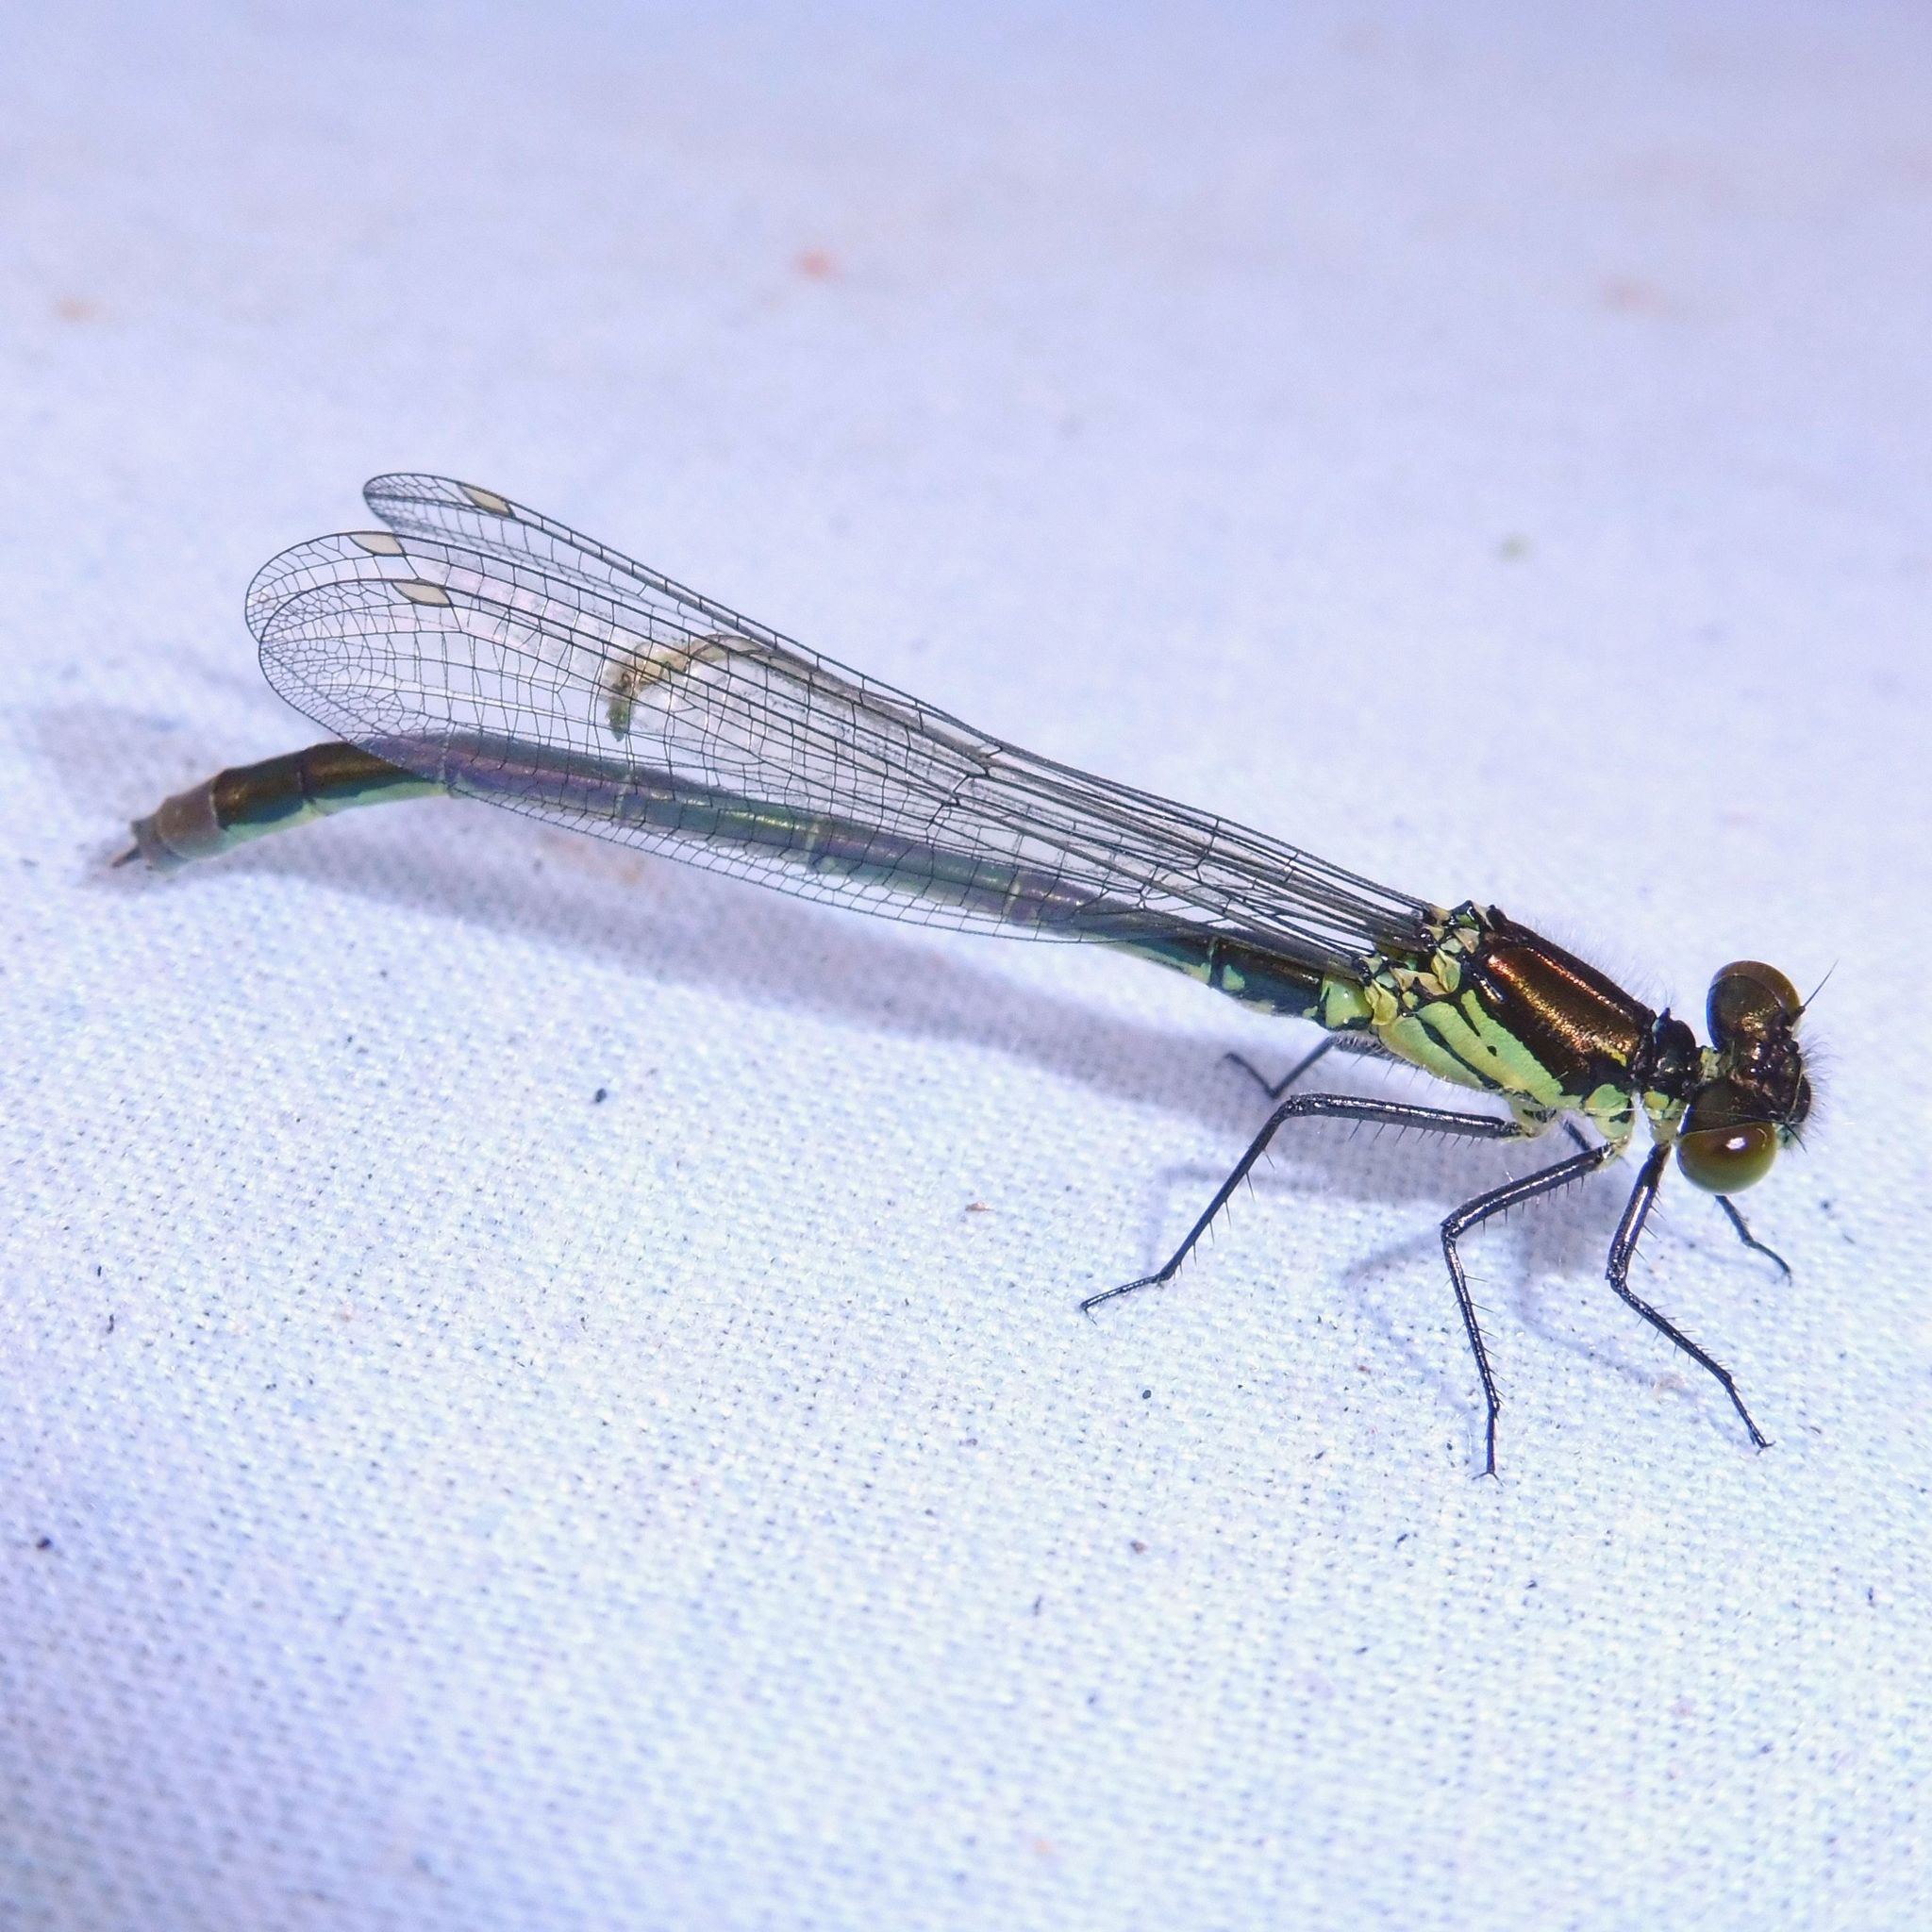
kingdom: Animalia
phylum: Arthropoda
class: Insecta
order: Odonata
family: Coenagrionidae
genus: Erythromma
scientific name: Erythromma najas
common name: Red-eyed damselfly
